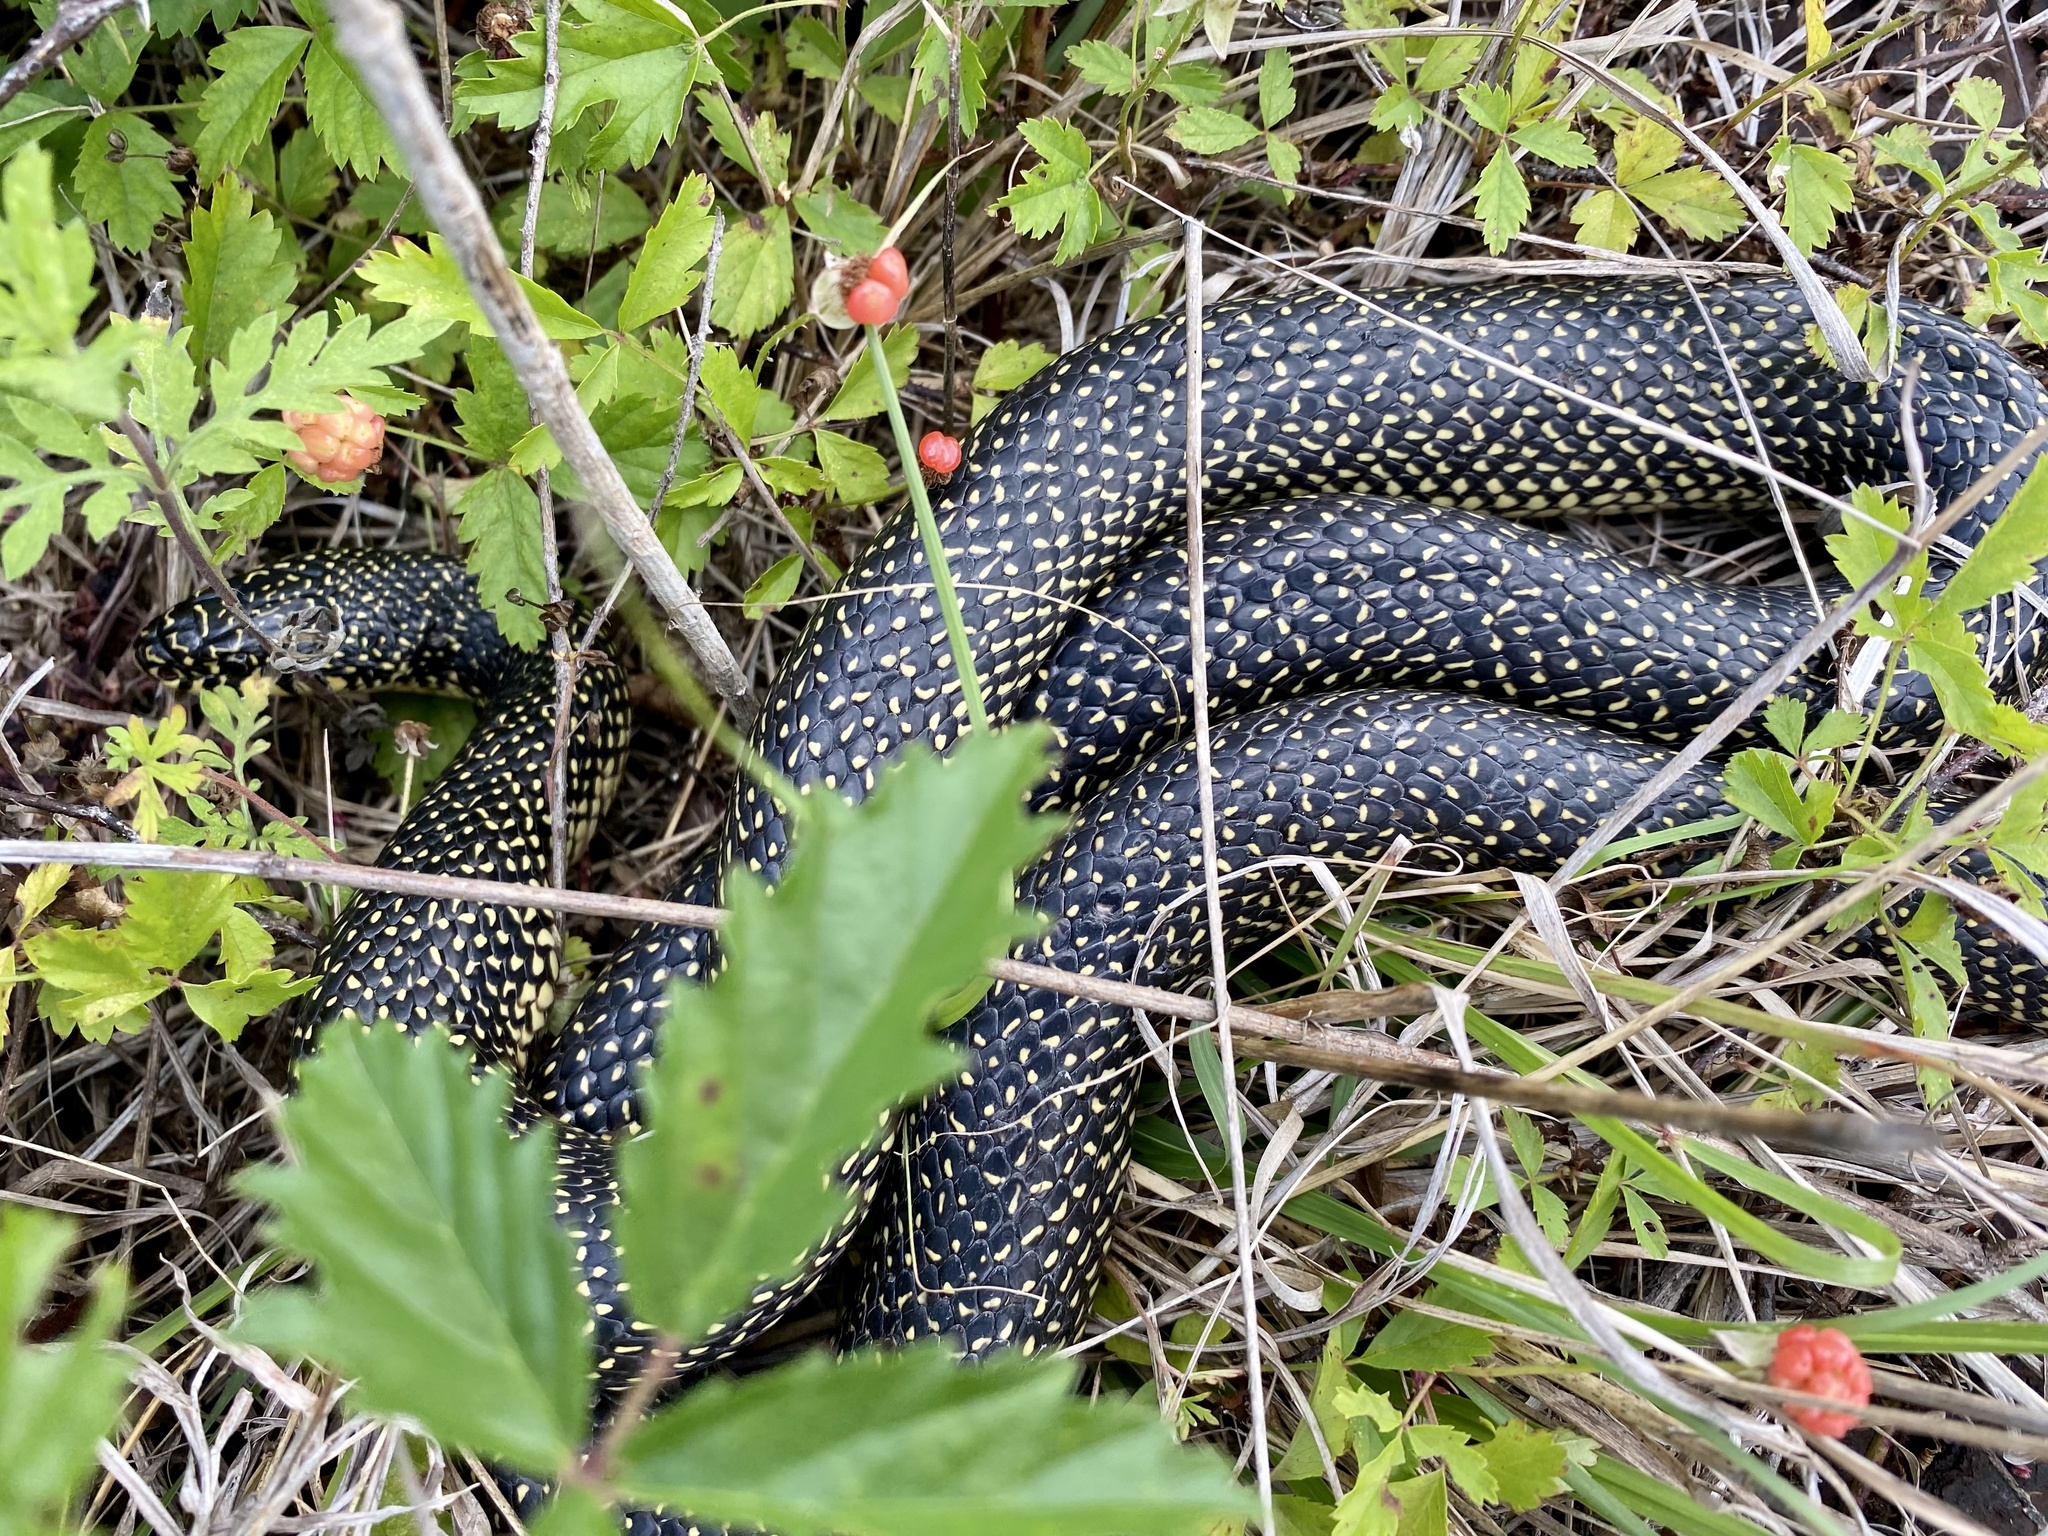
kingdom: Animalia
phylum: Chordata
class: Squamata
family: Colubridae
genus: Lampropeltis
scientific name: Lampropeltis holbrooki
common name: Speckled kingsnake
